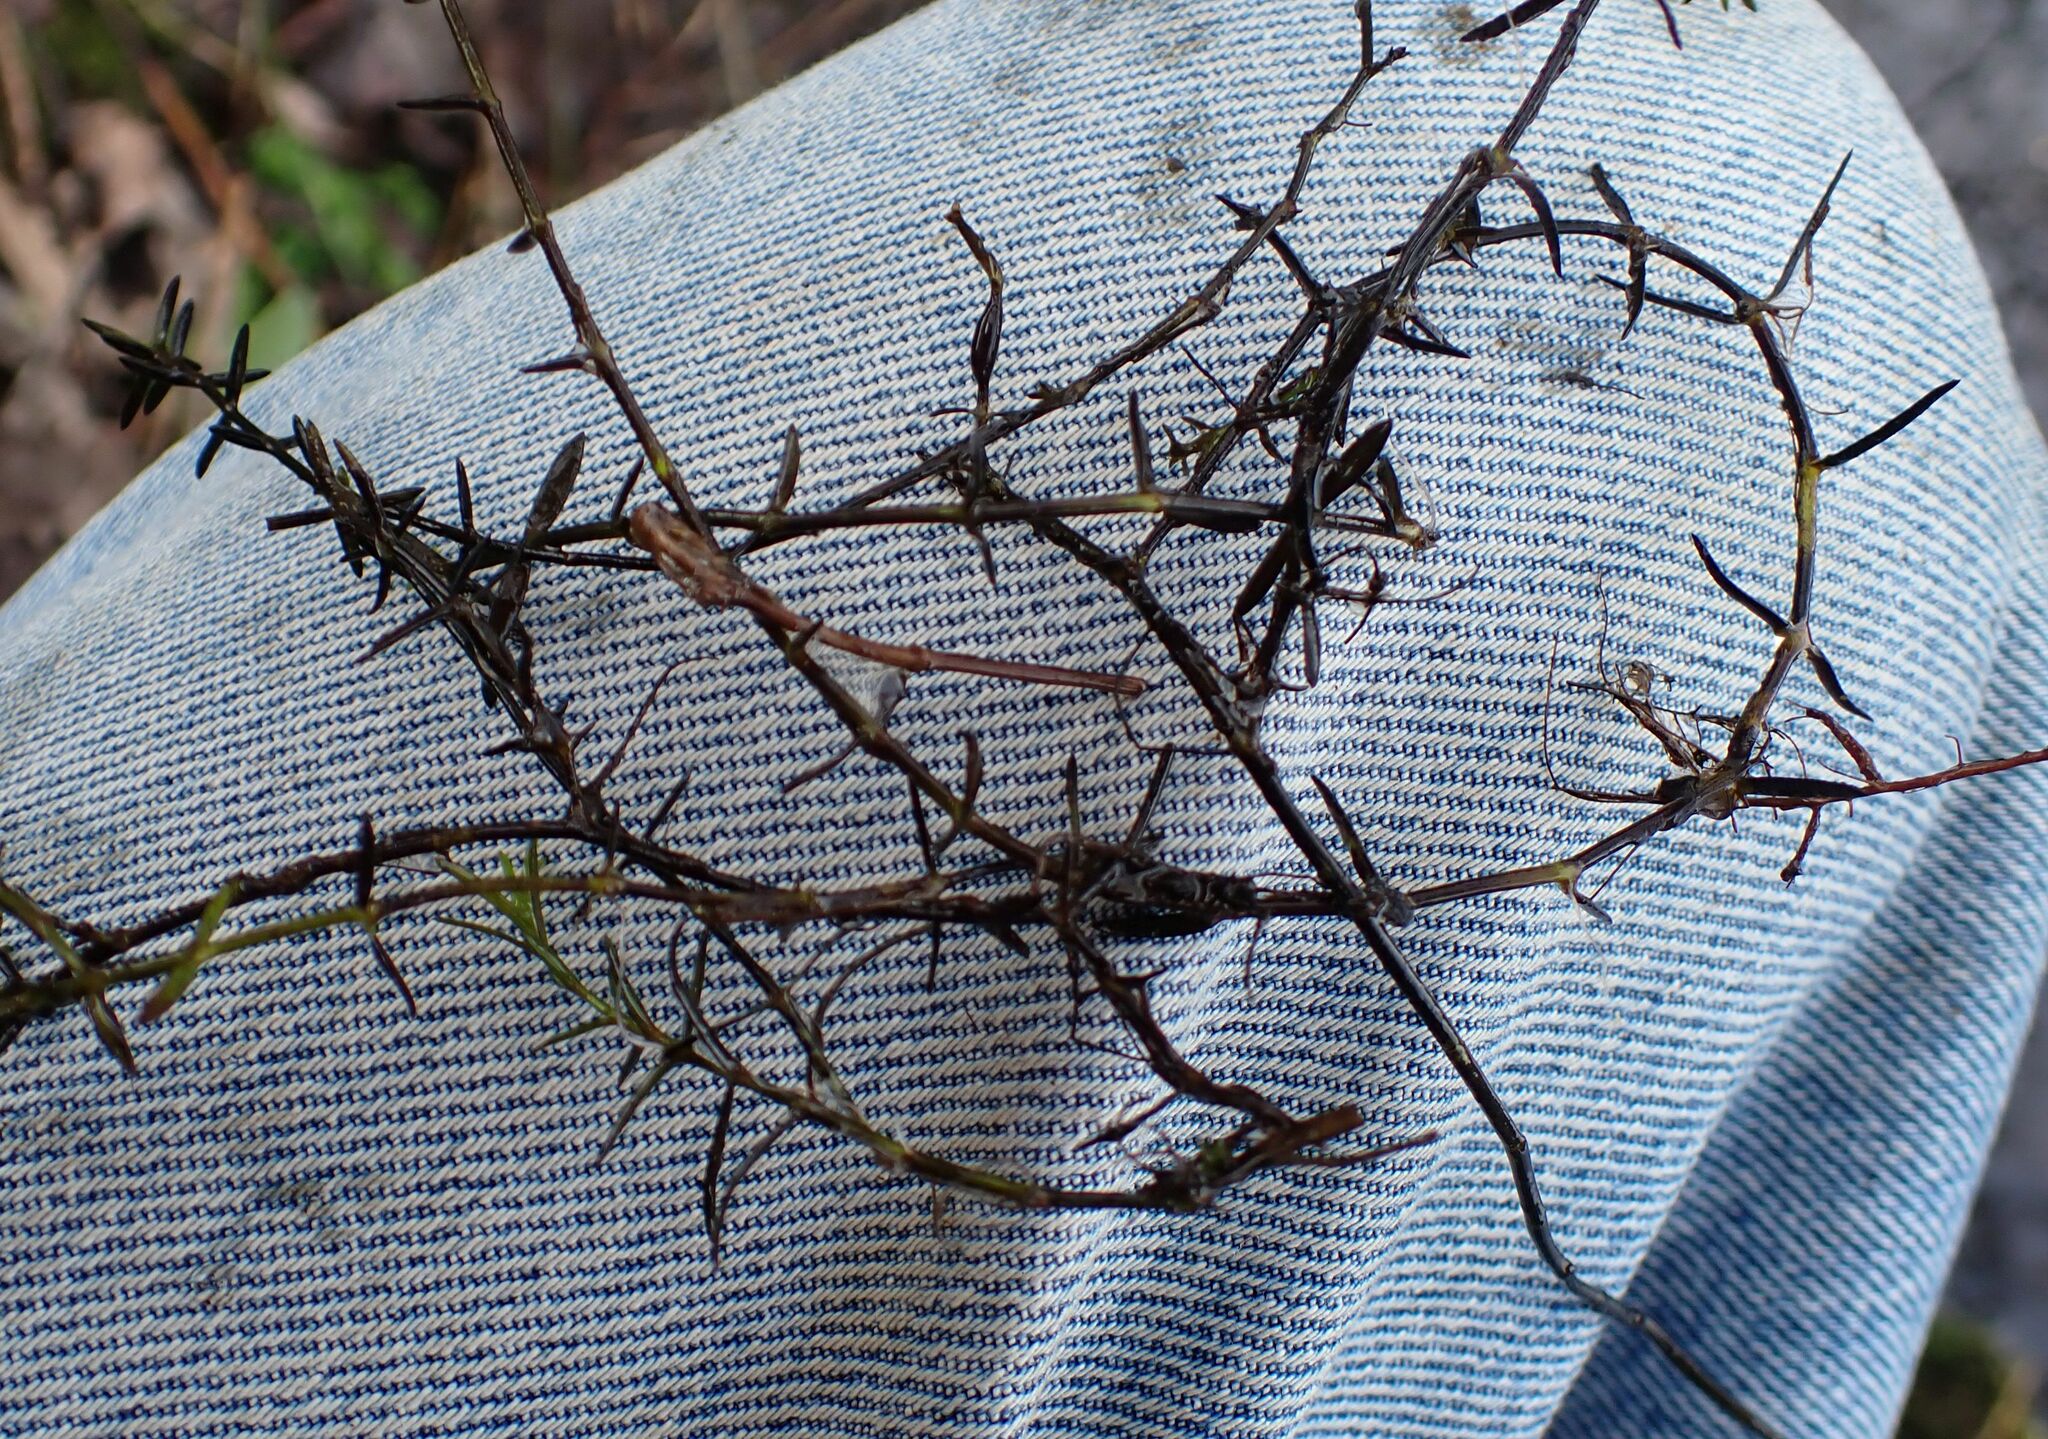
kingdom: Plantae
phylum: Tracheophyta
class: Magnoliopsida
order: Saxifragales
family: Crassulaceae
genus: Crassula
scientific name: Crassula helmsii
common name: New zealand pigmyweed
